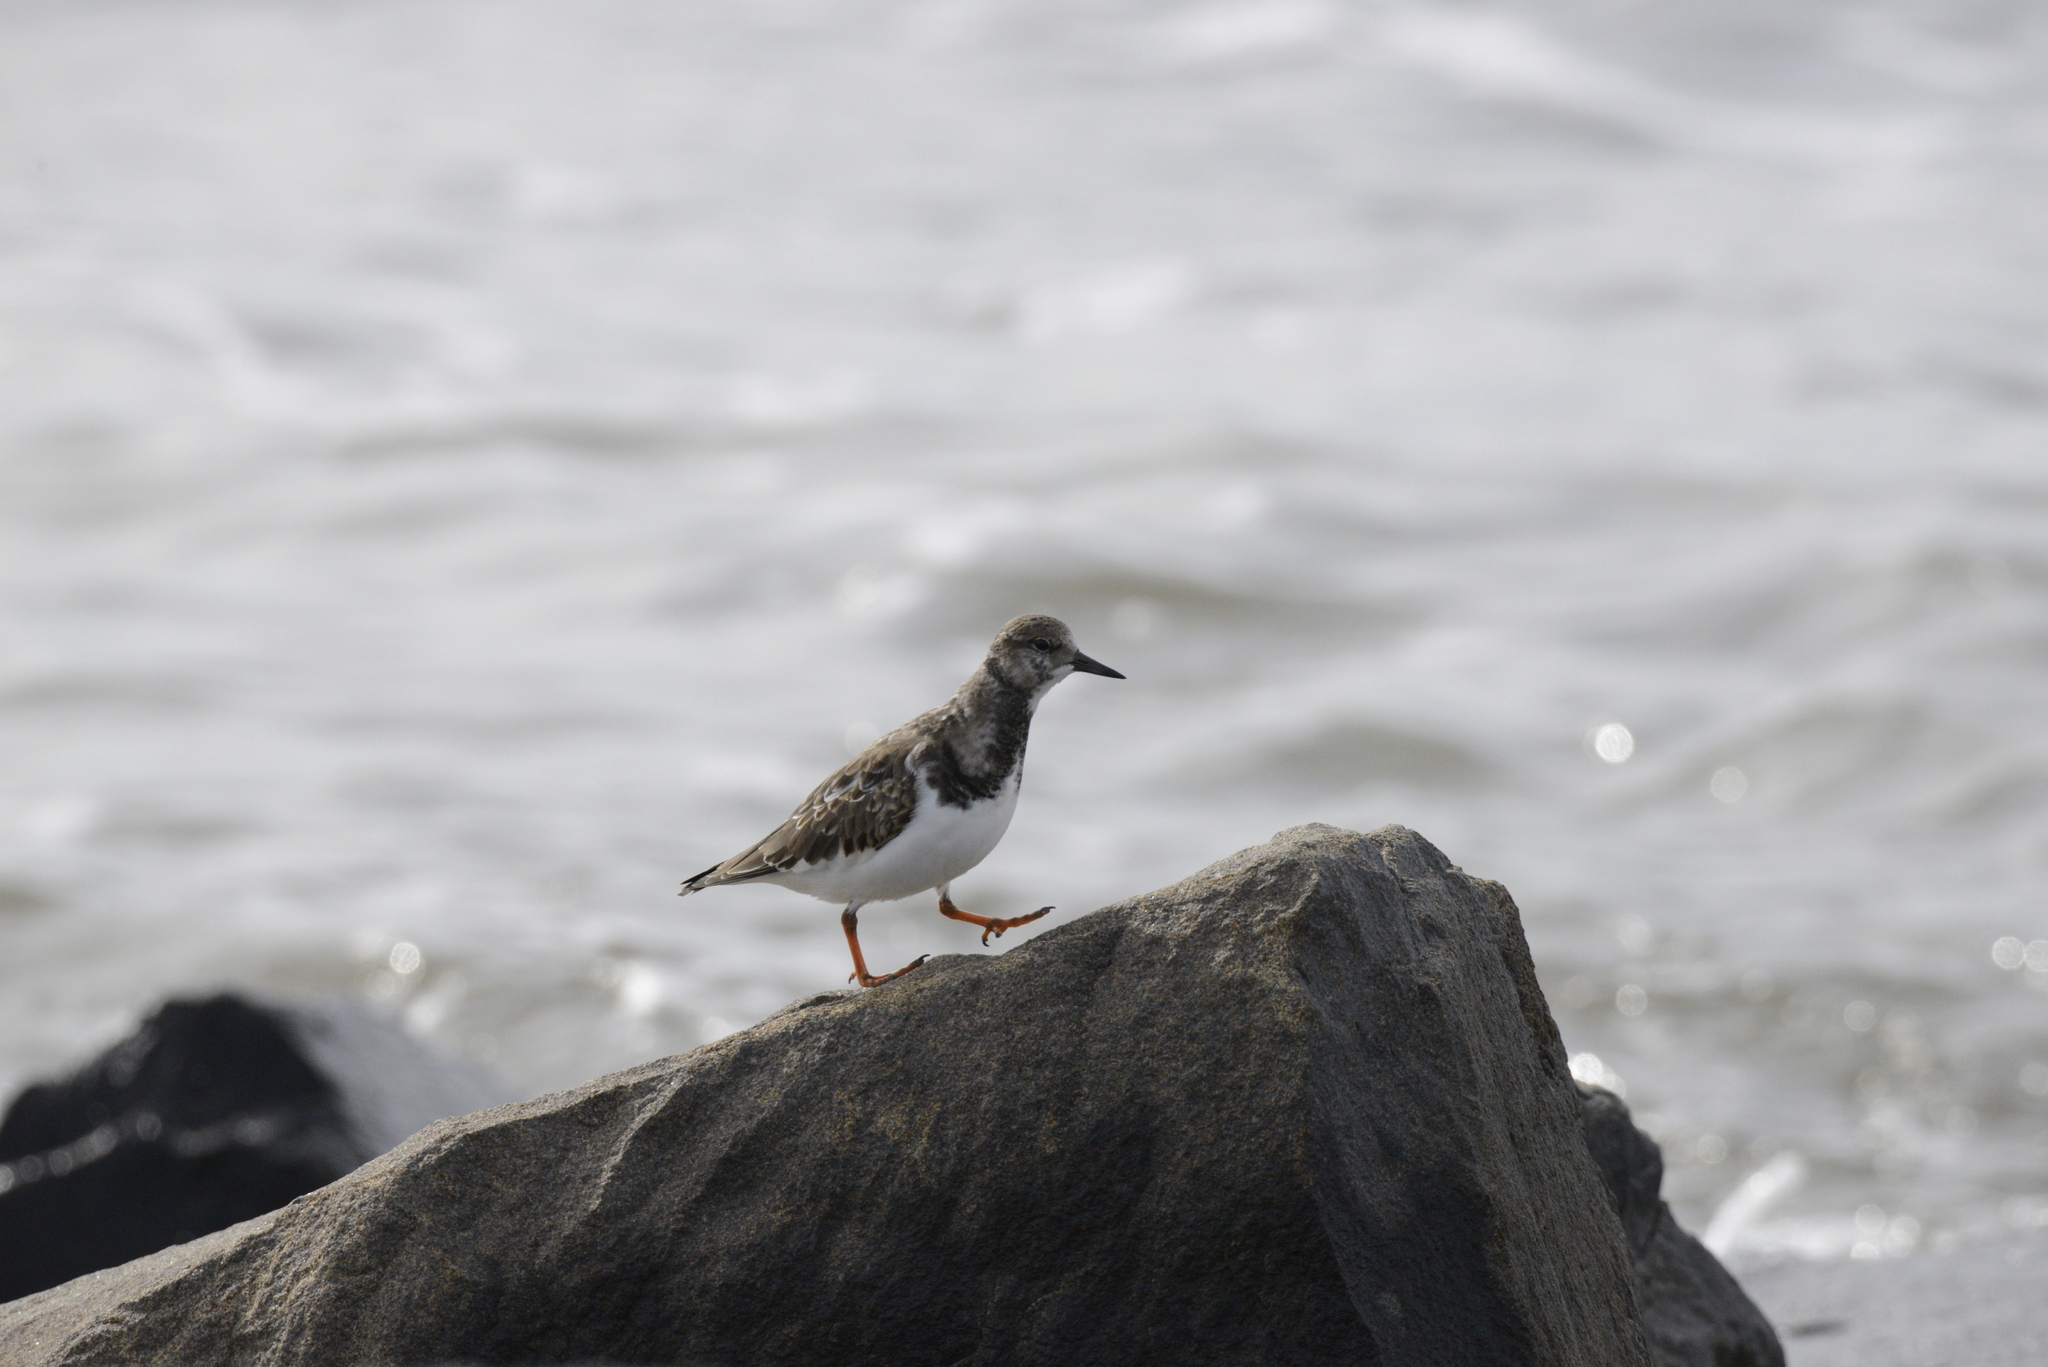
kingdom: Animalia
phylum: Chordata
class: Aves
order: Charadriiformes
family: Scolopacidae
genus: Arenaria
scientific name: Arenaria interpres
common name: Ruddy turnstone
